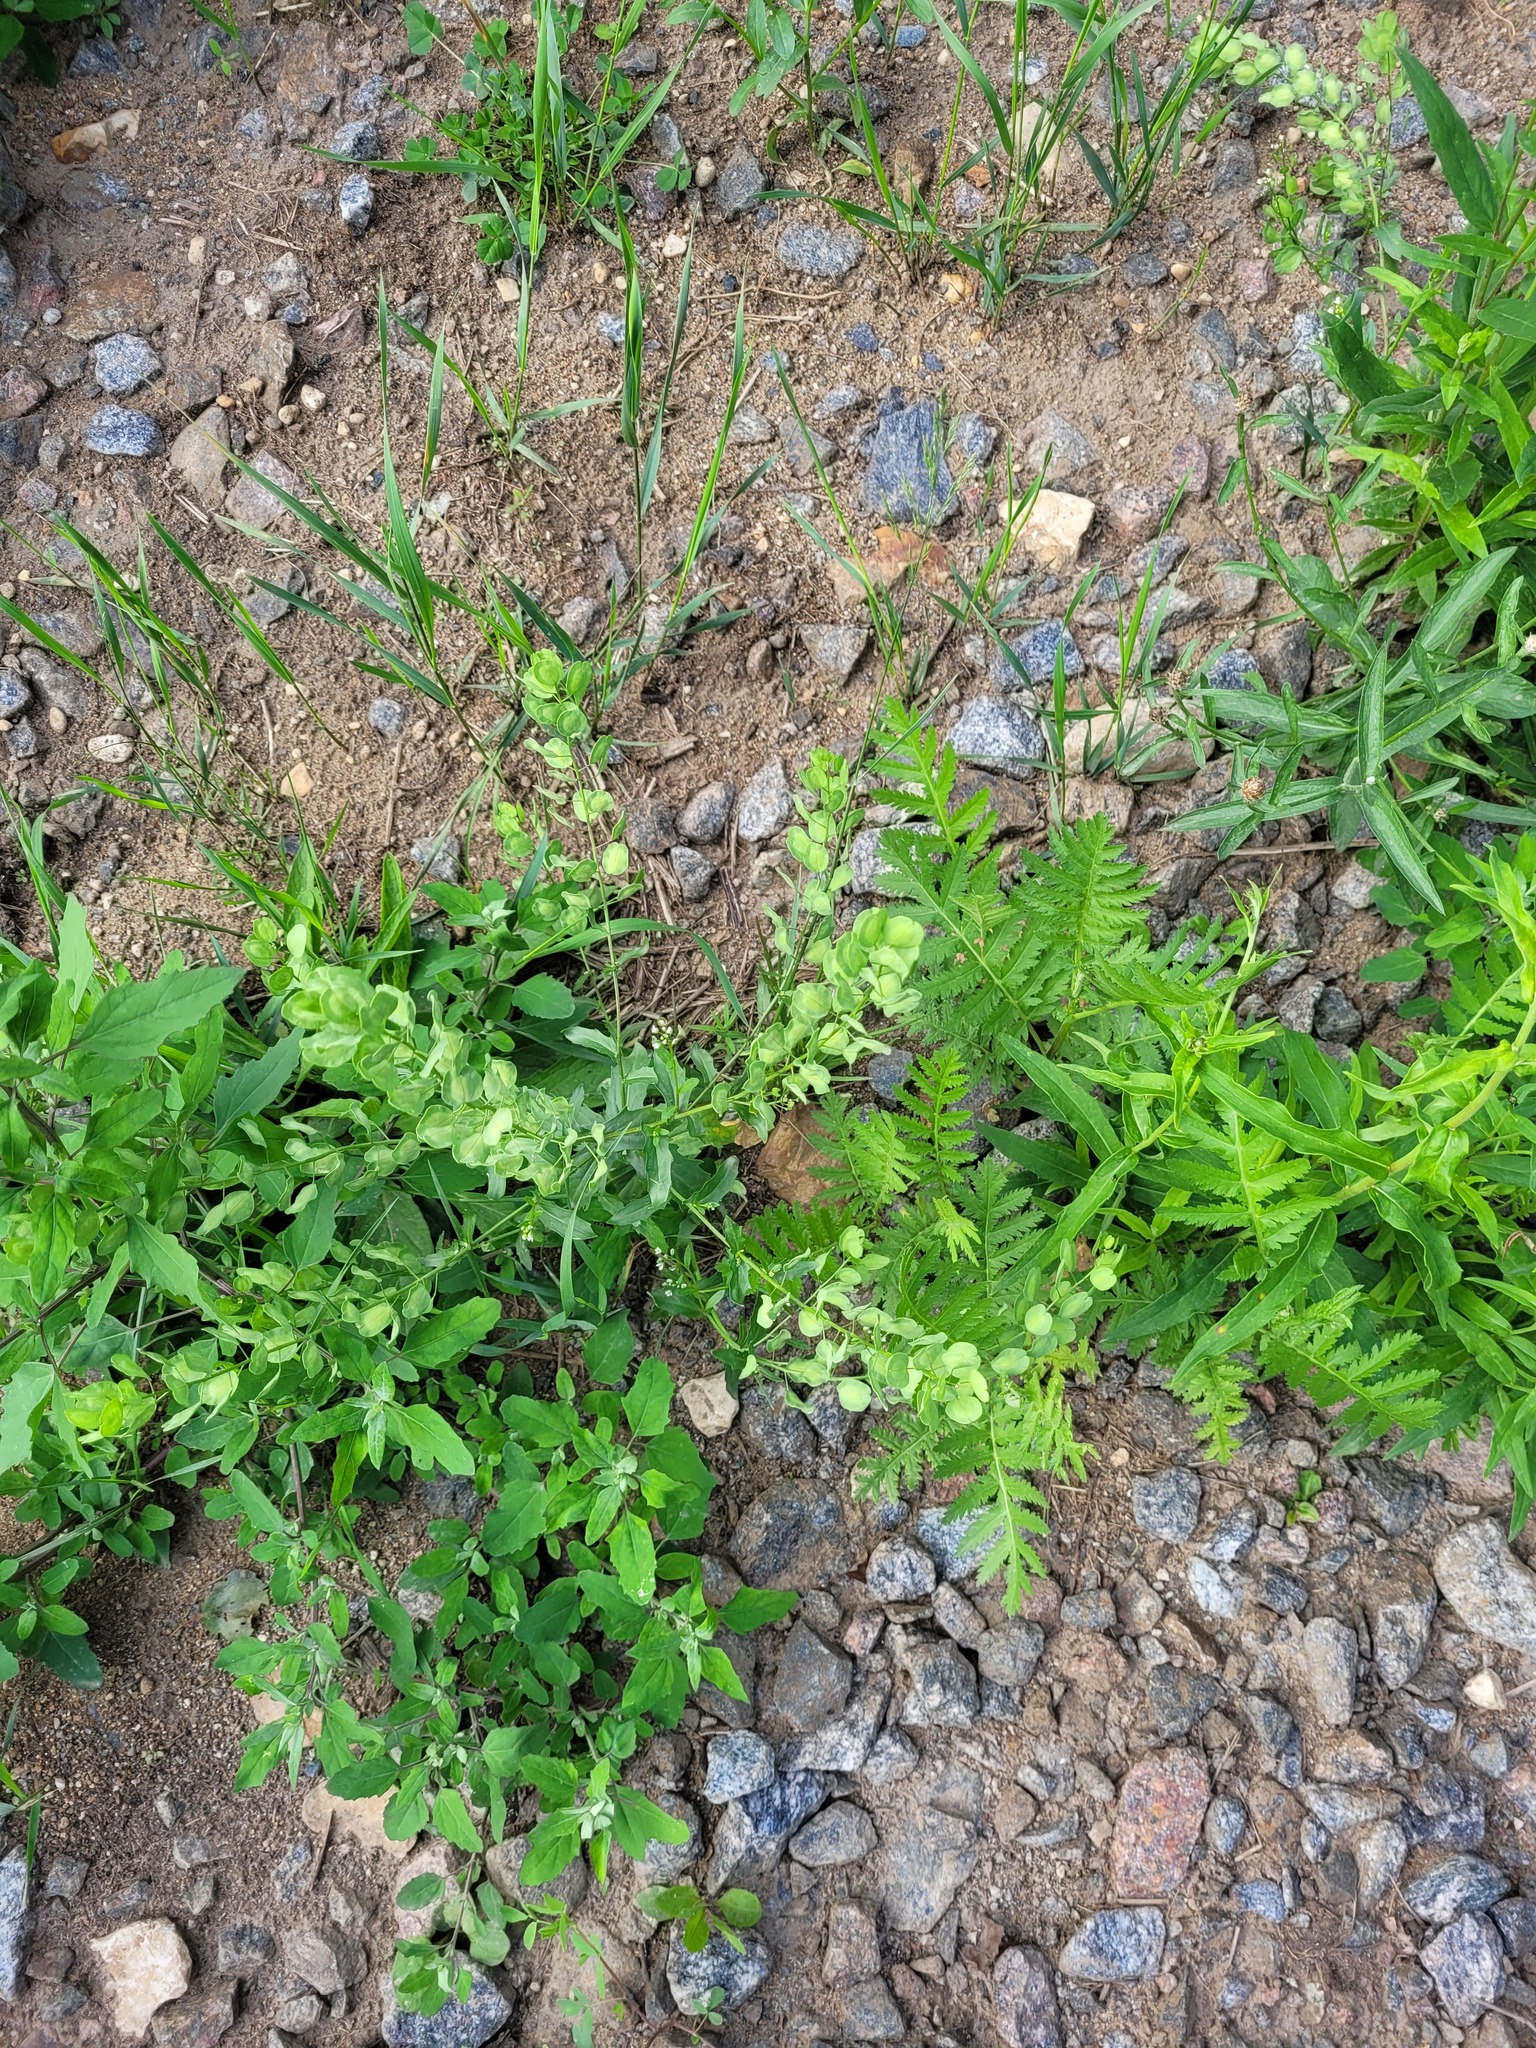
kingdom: Plantae
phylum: Tracheophyta
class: Magnoliopsida
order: Brassicales
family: Brassicaceae
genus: Thlaspi
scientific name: Thlaspi arvense
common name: Field pennycress
